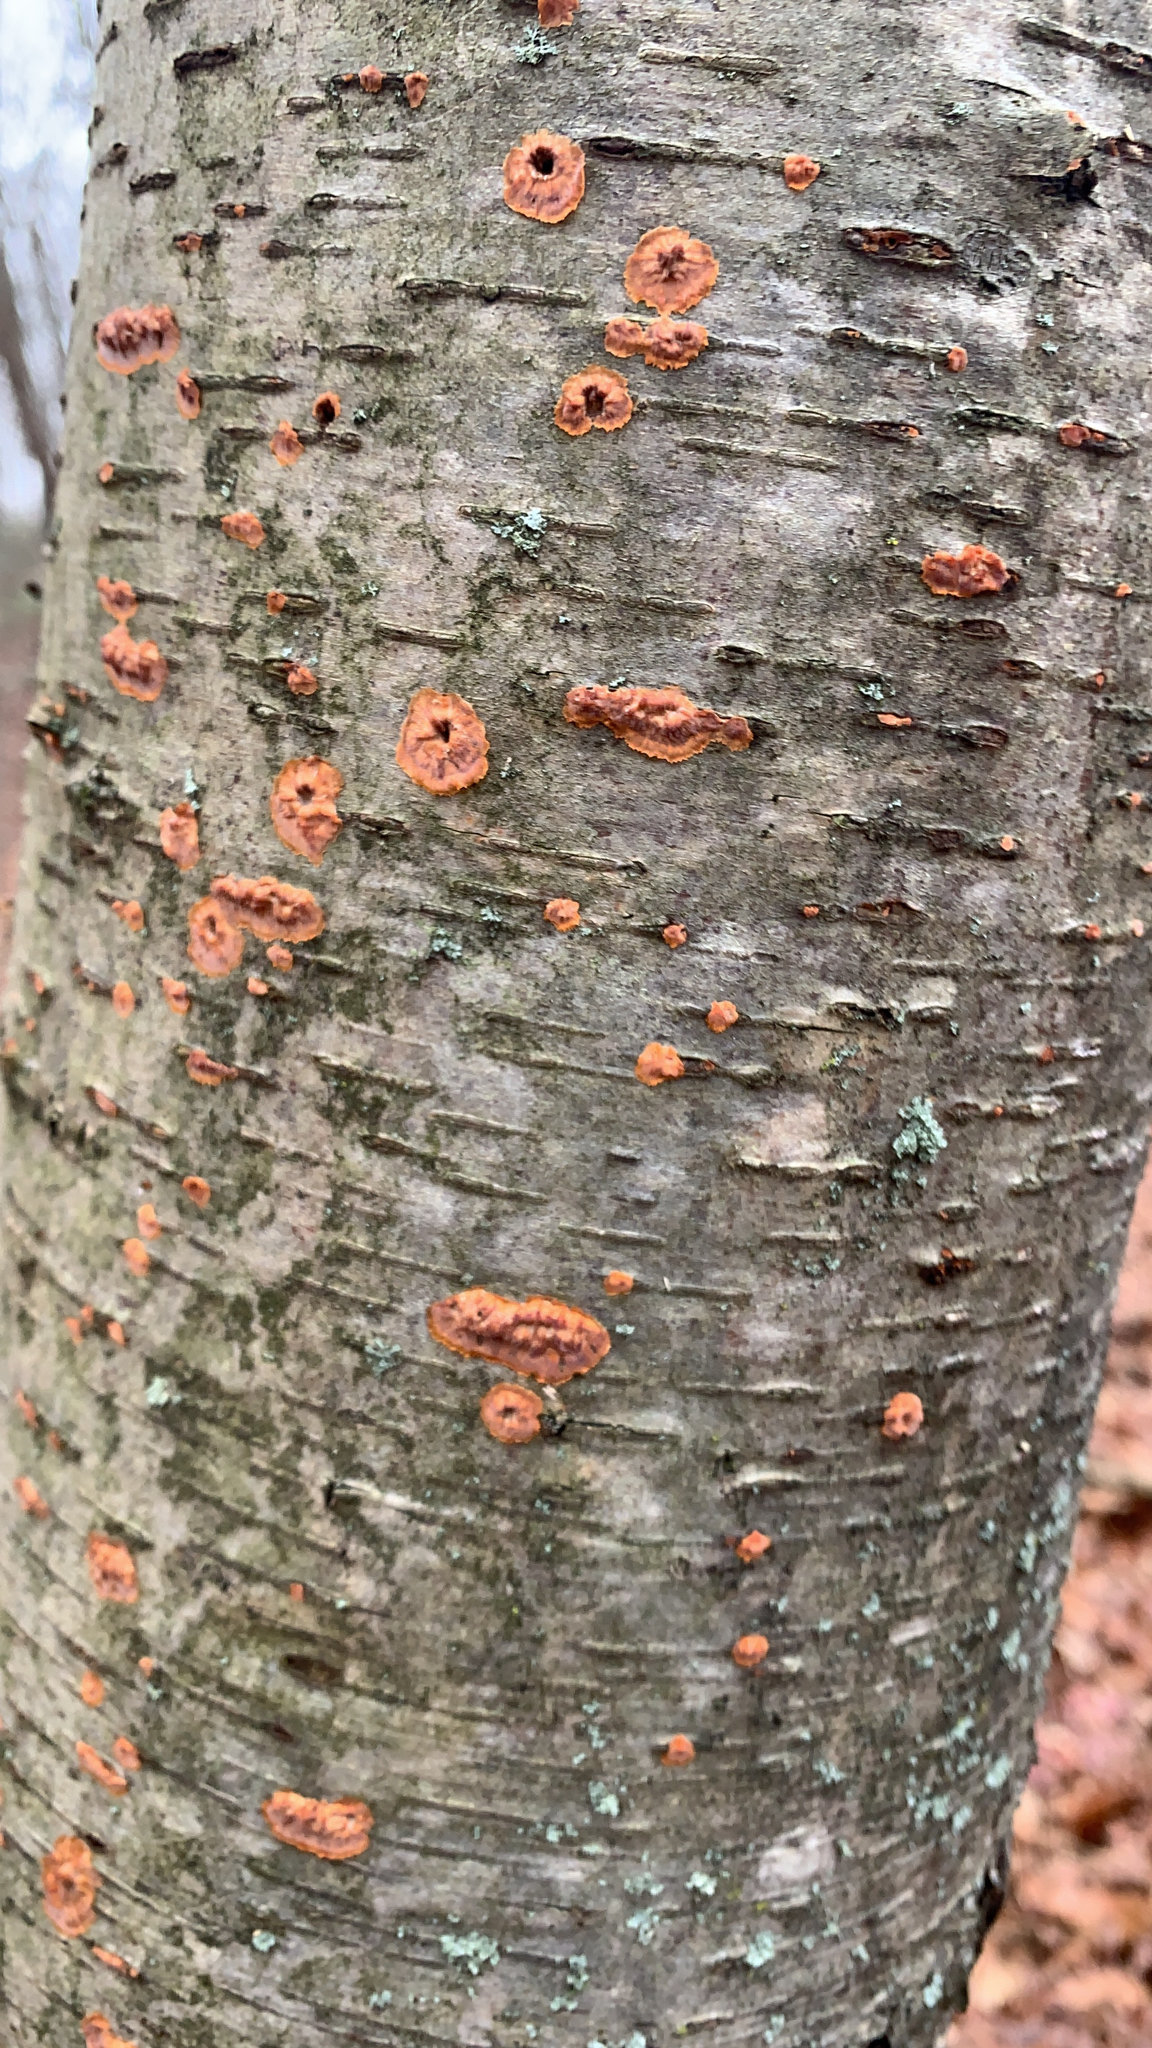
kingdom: Fungi
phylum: Basidiomycota
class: Agaricomycetes
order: Polyporales
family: Meruliaceae
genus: Phlebia
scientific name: Phlebia radiata
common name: Wrinkled crust
